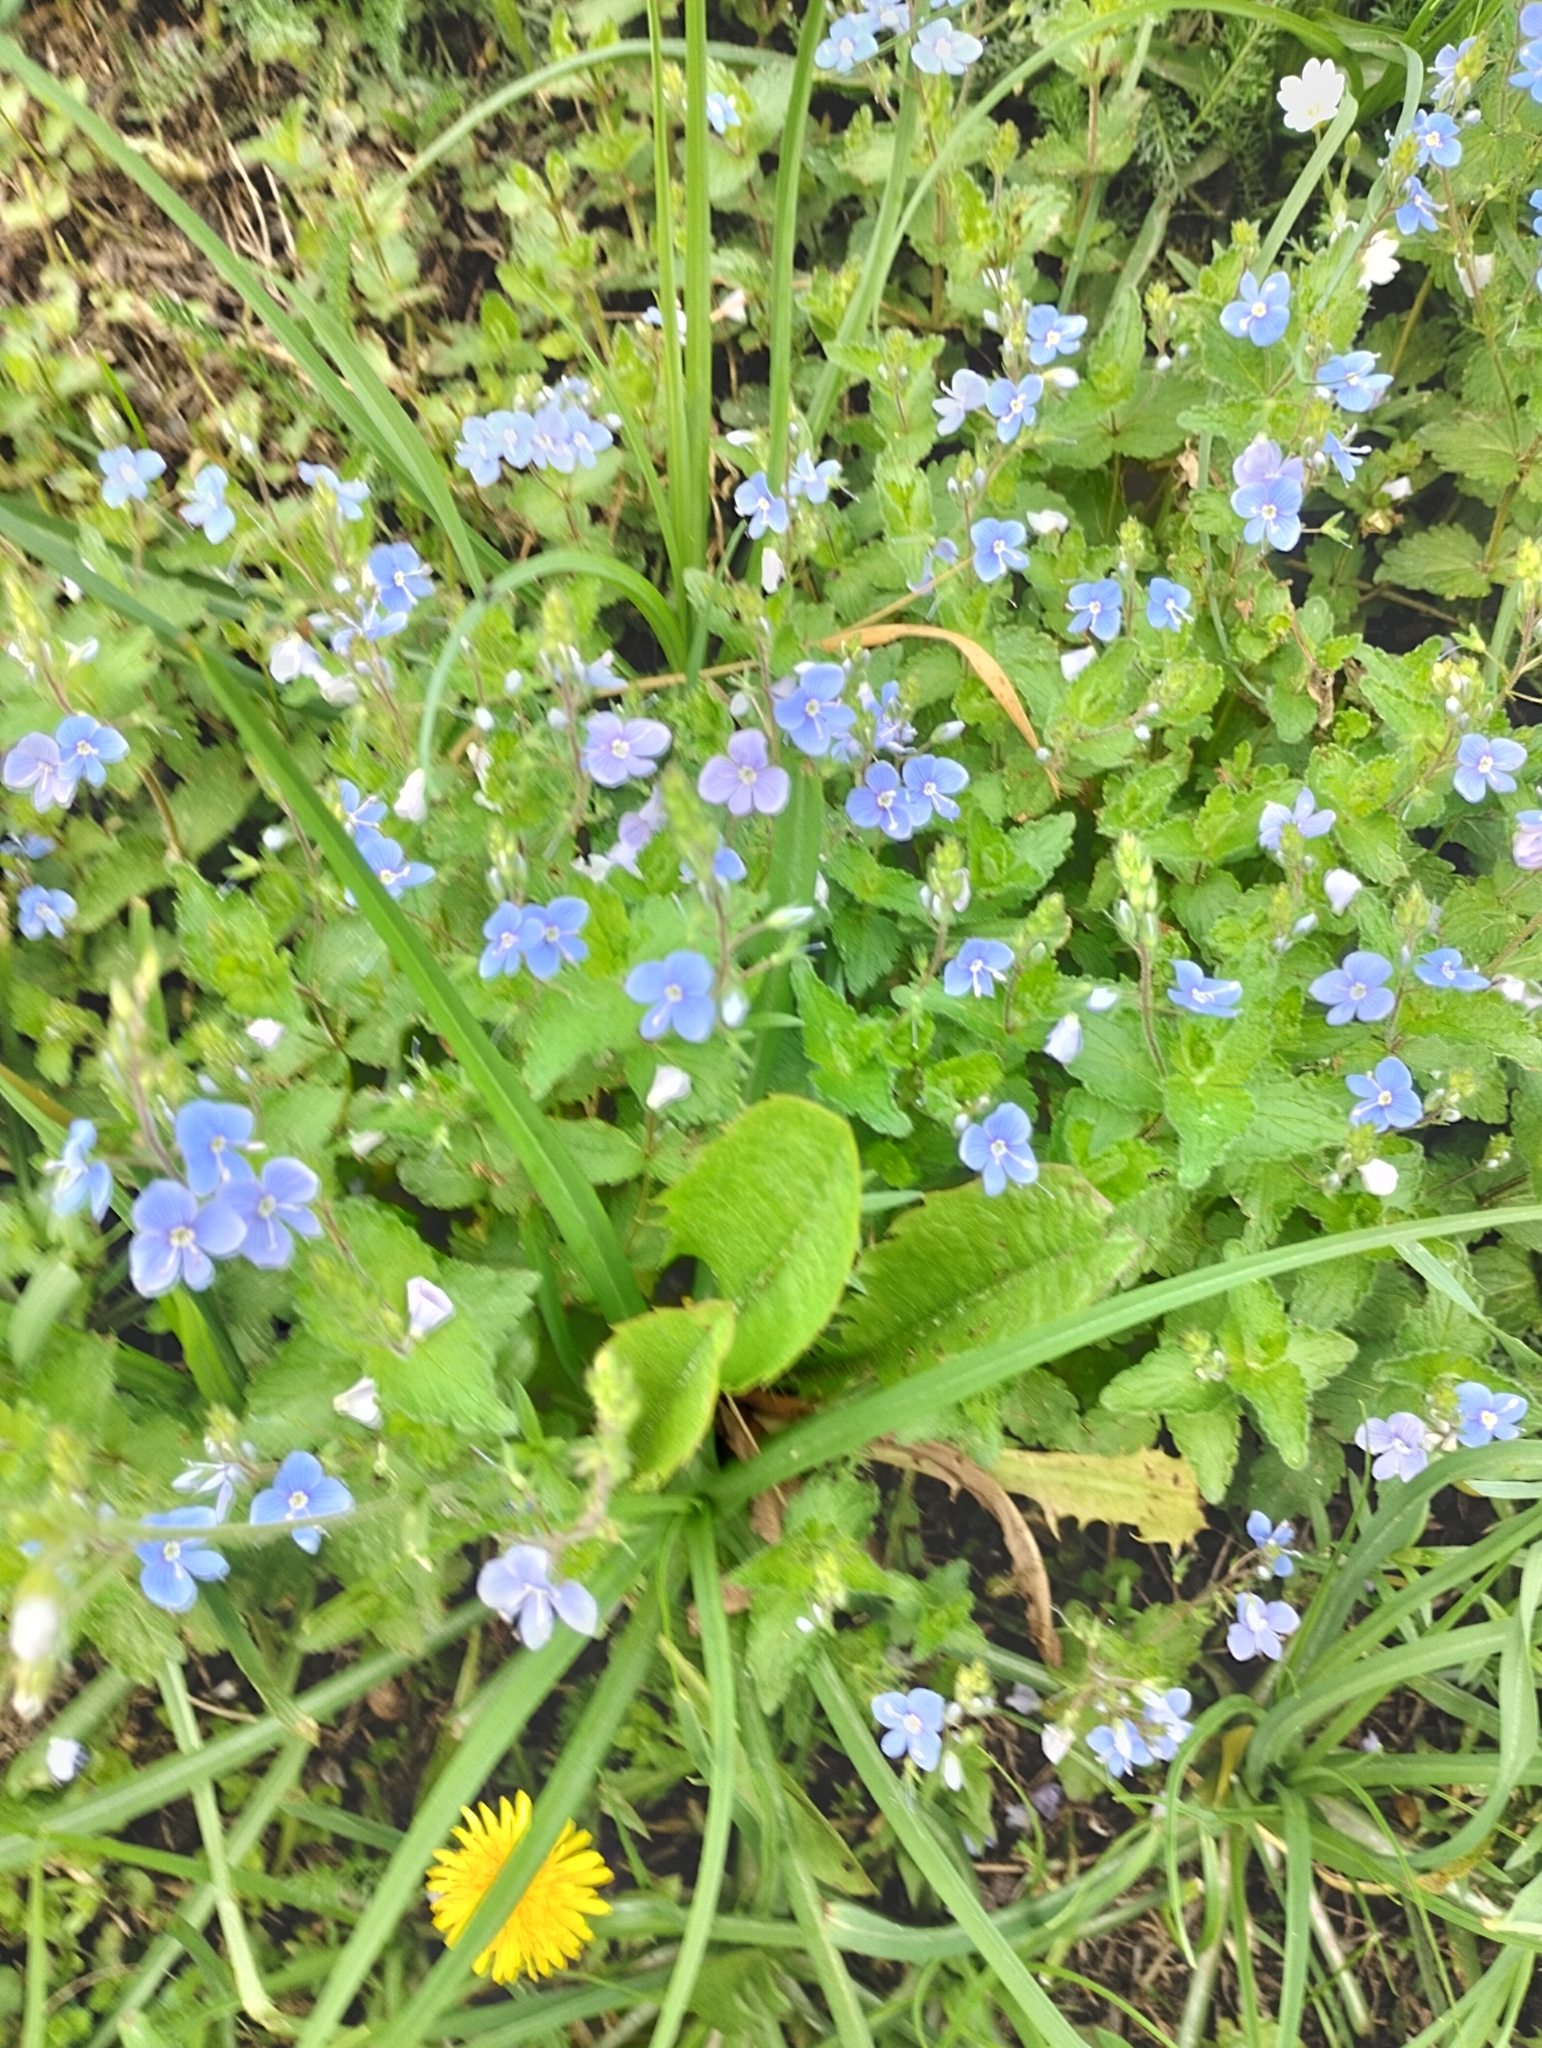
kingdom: Plantae
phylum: Tracheophyta
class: Magnoliopsida
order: Lamiales
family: Plantaginaceae
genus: Veronica
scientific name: Veronica chamaedrys
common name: Germander speedwell
